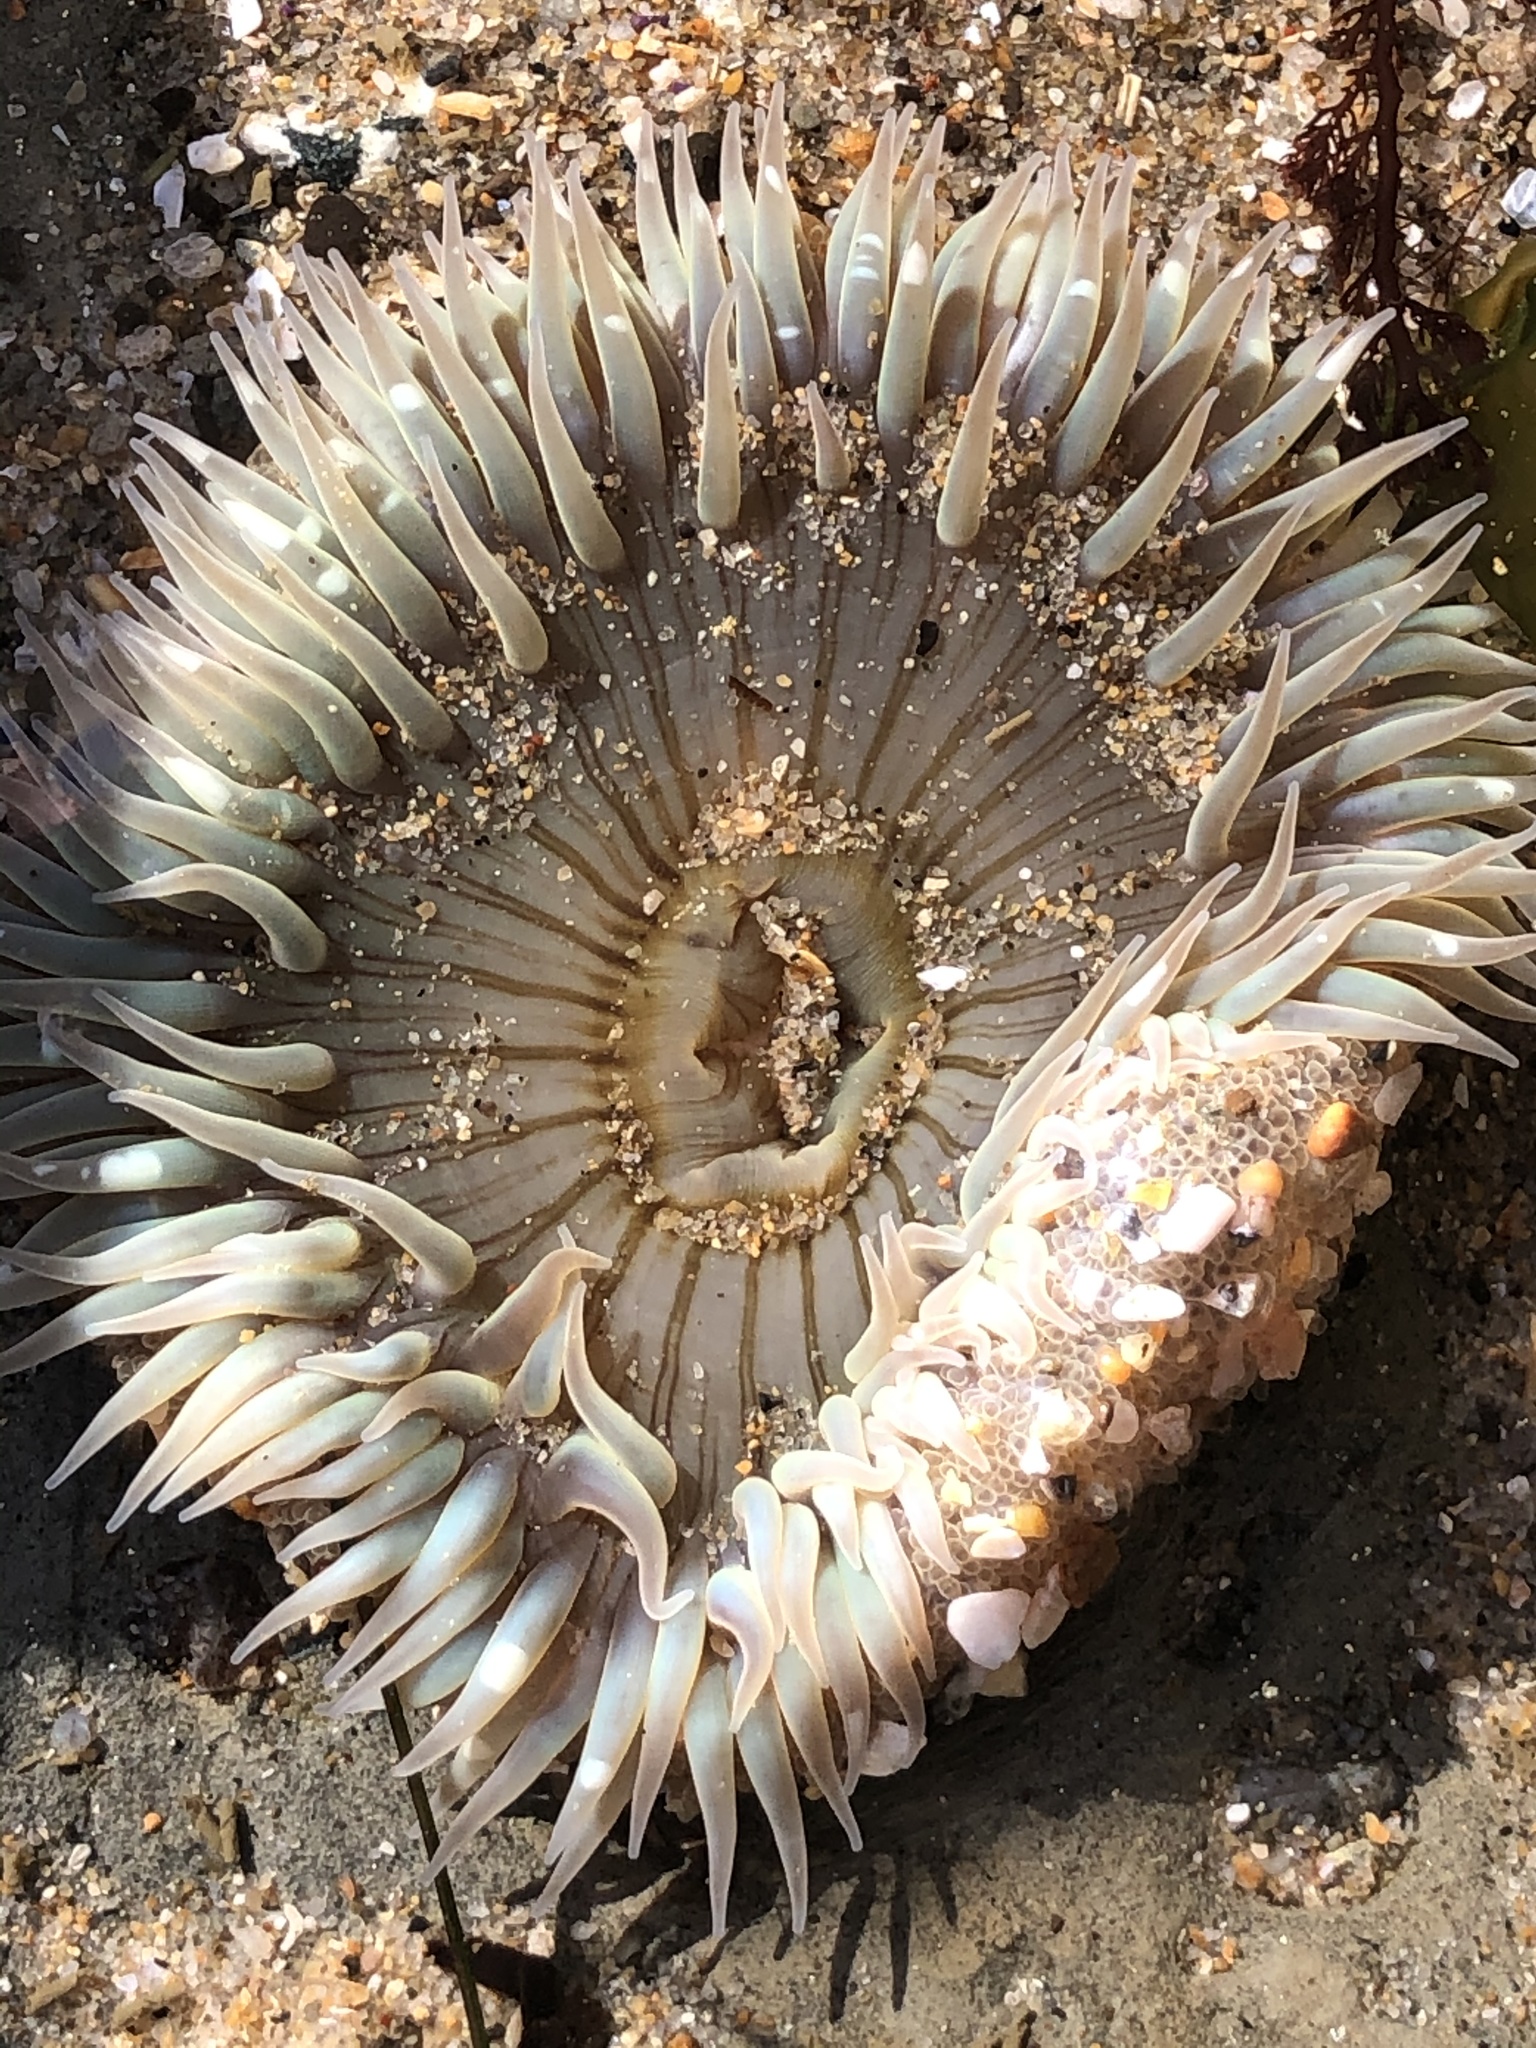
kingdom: Animalia
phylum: Cnidaria
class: Anthozoa
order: Actiniaria
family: Actiniidae
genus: Anthopleura
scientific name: Anthopleura sola
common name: Sun anemone
